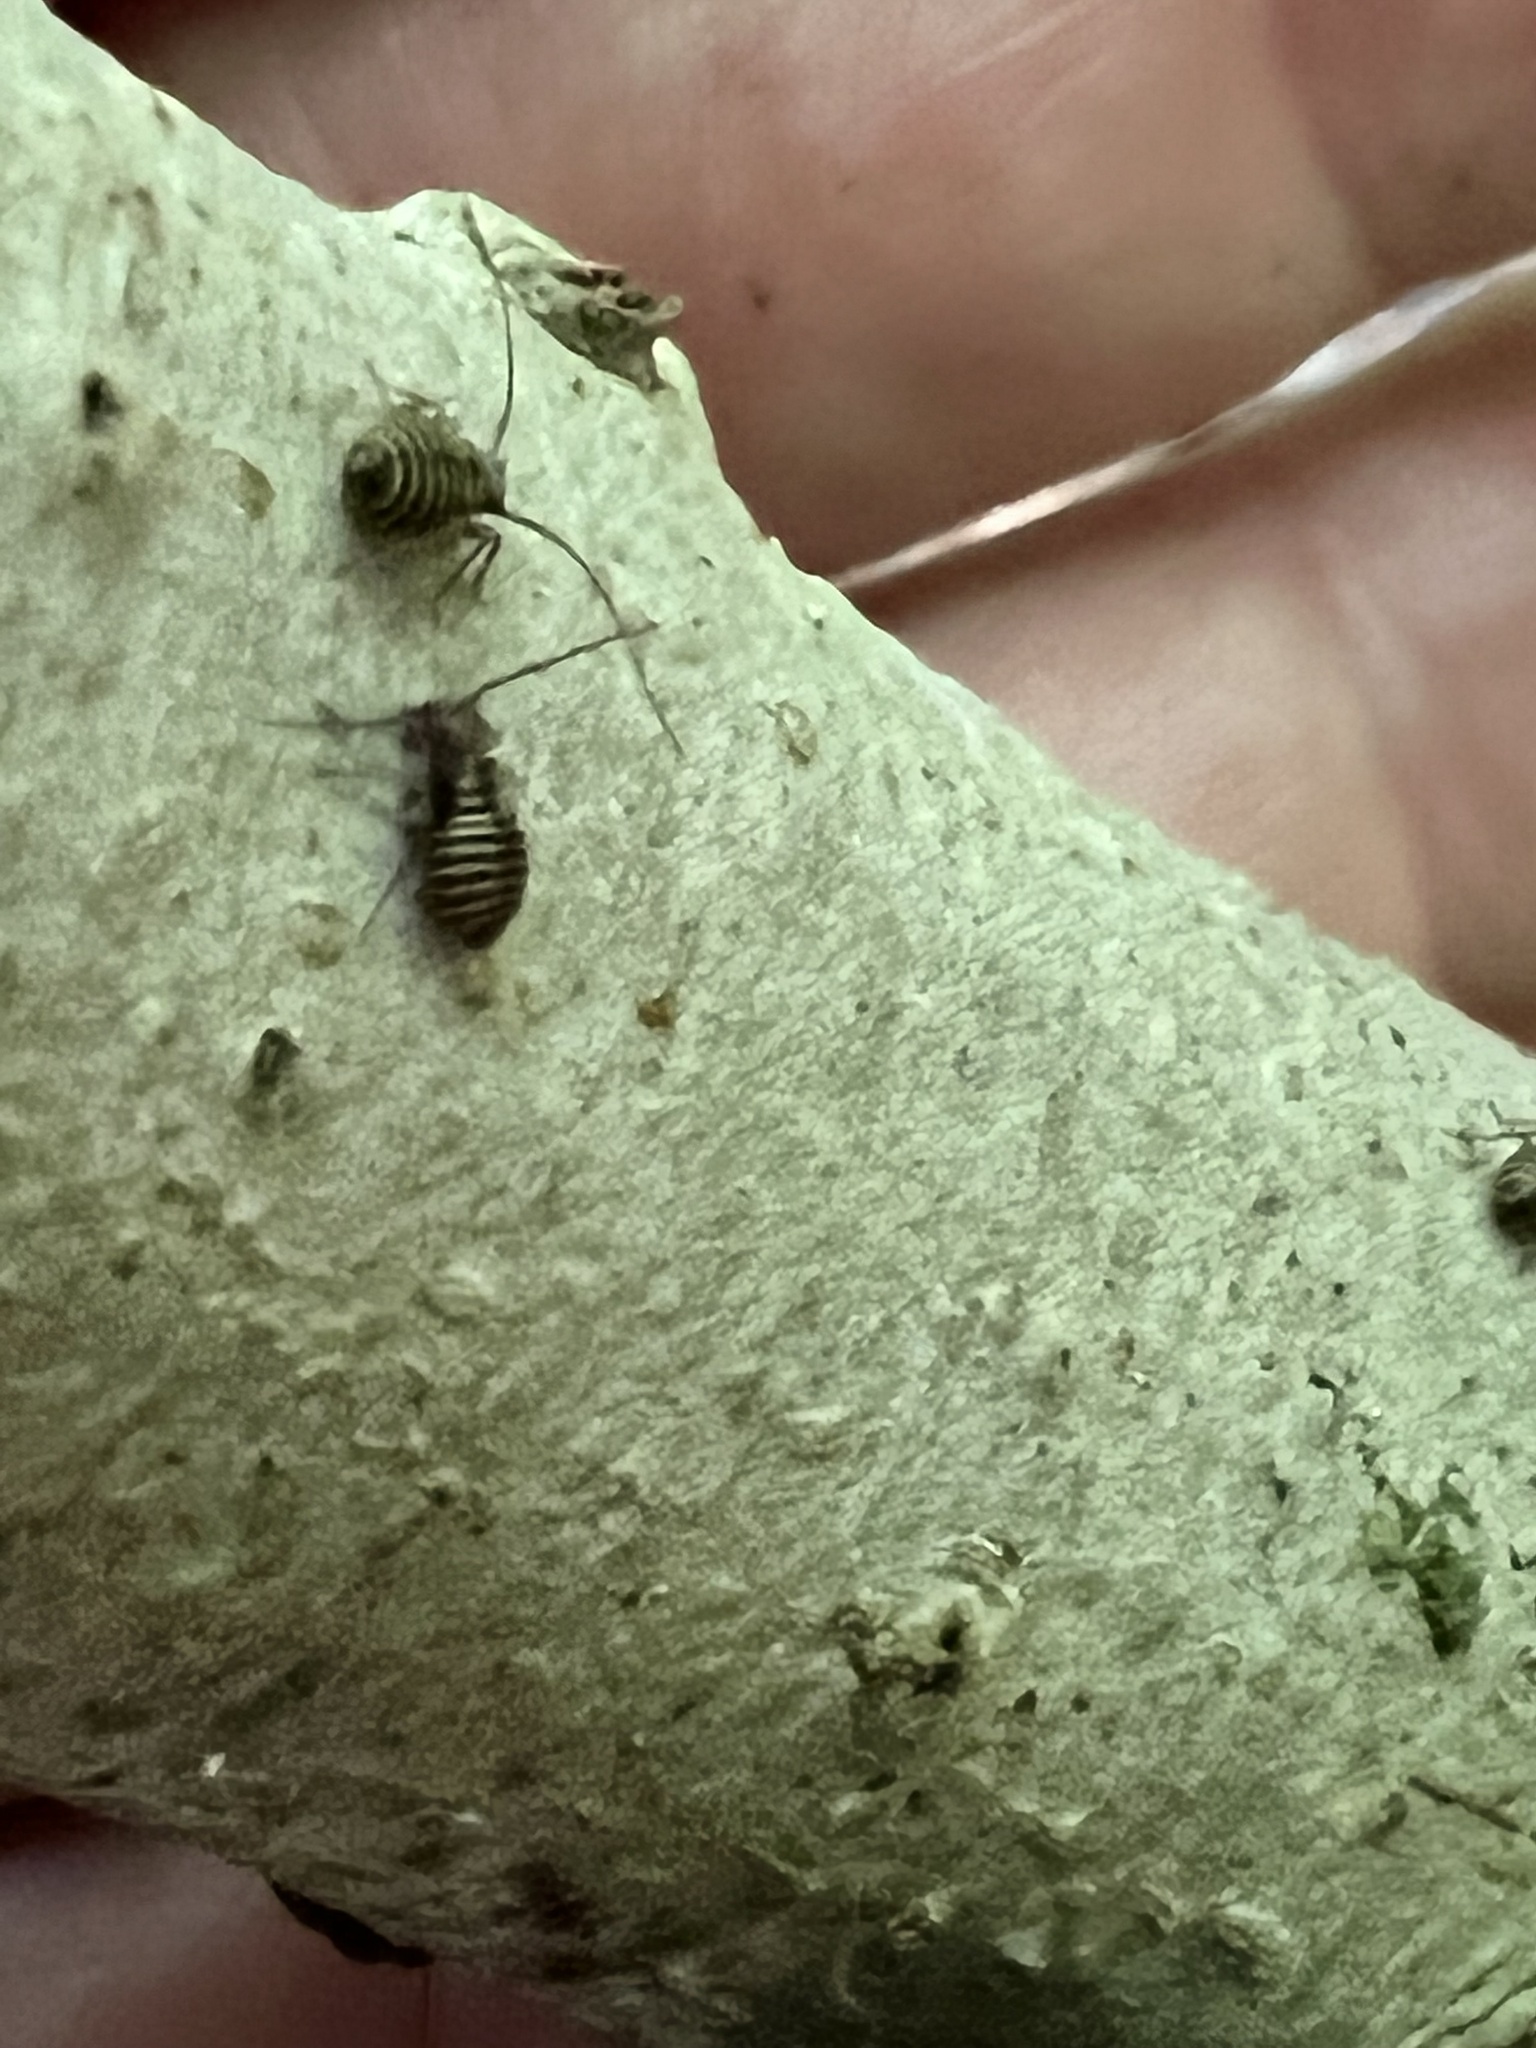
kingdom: Animalia
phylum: Arthropoda
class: Insecta
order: Psocodea
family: Psocidae
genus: Cerastipsocus
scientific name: Cerastipsocus venosus
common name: Tree cattle
